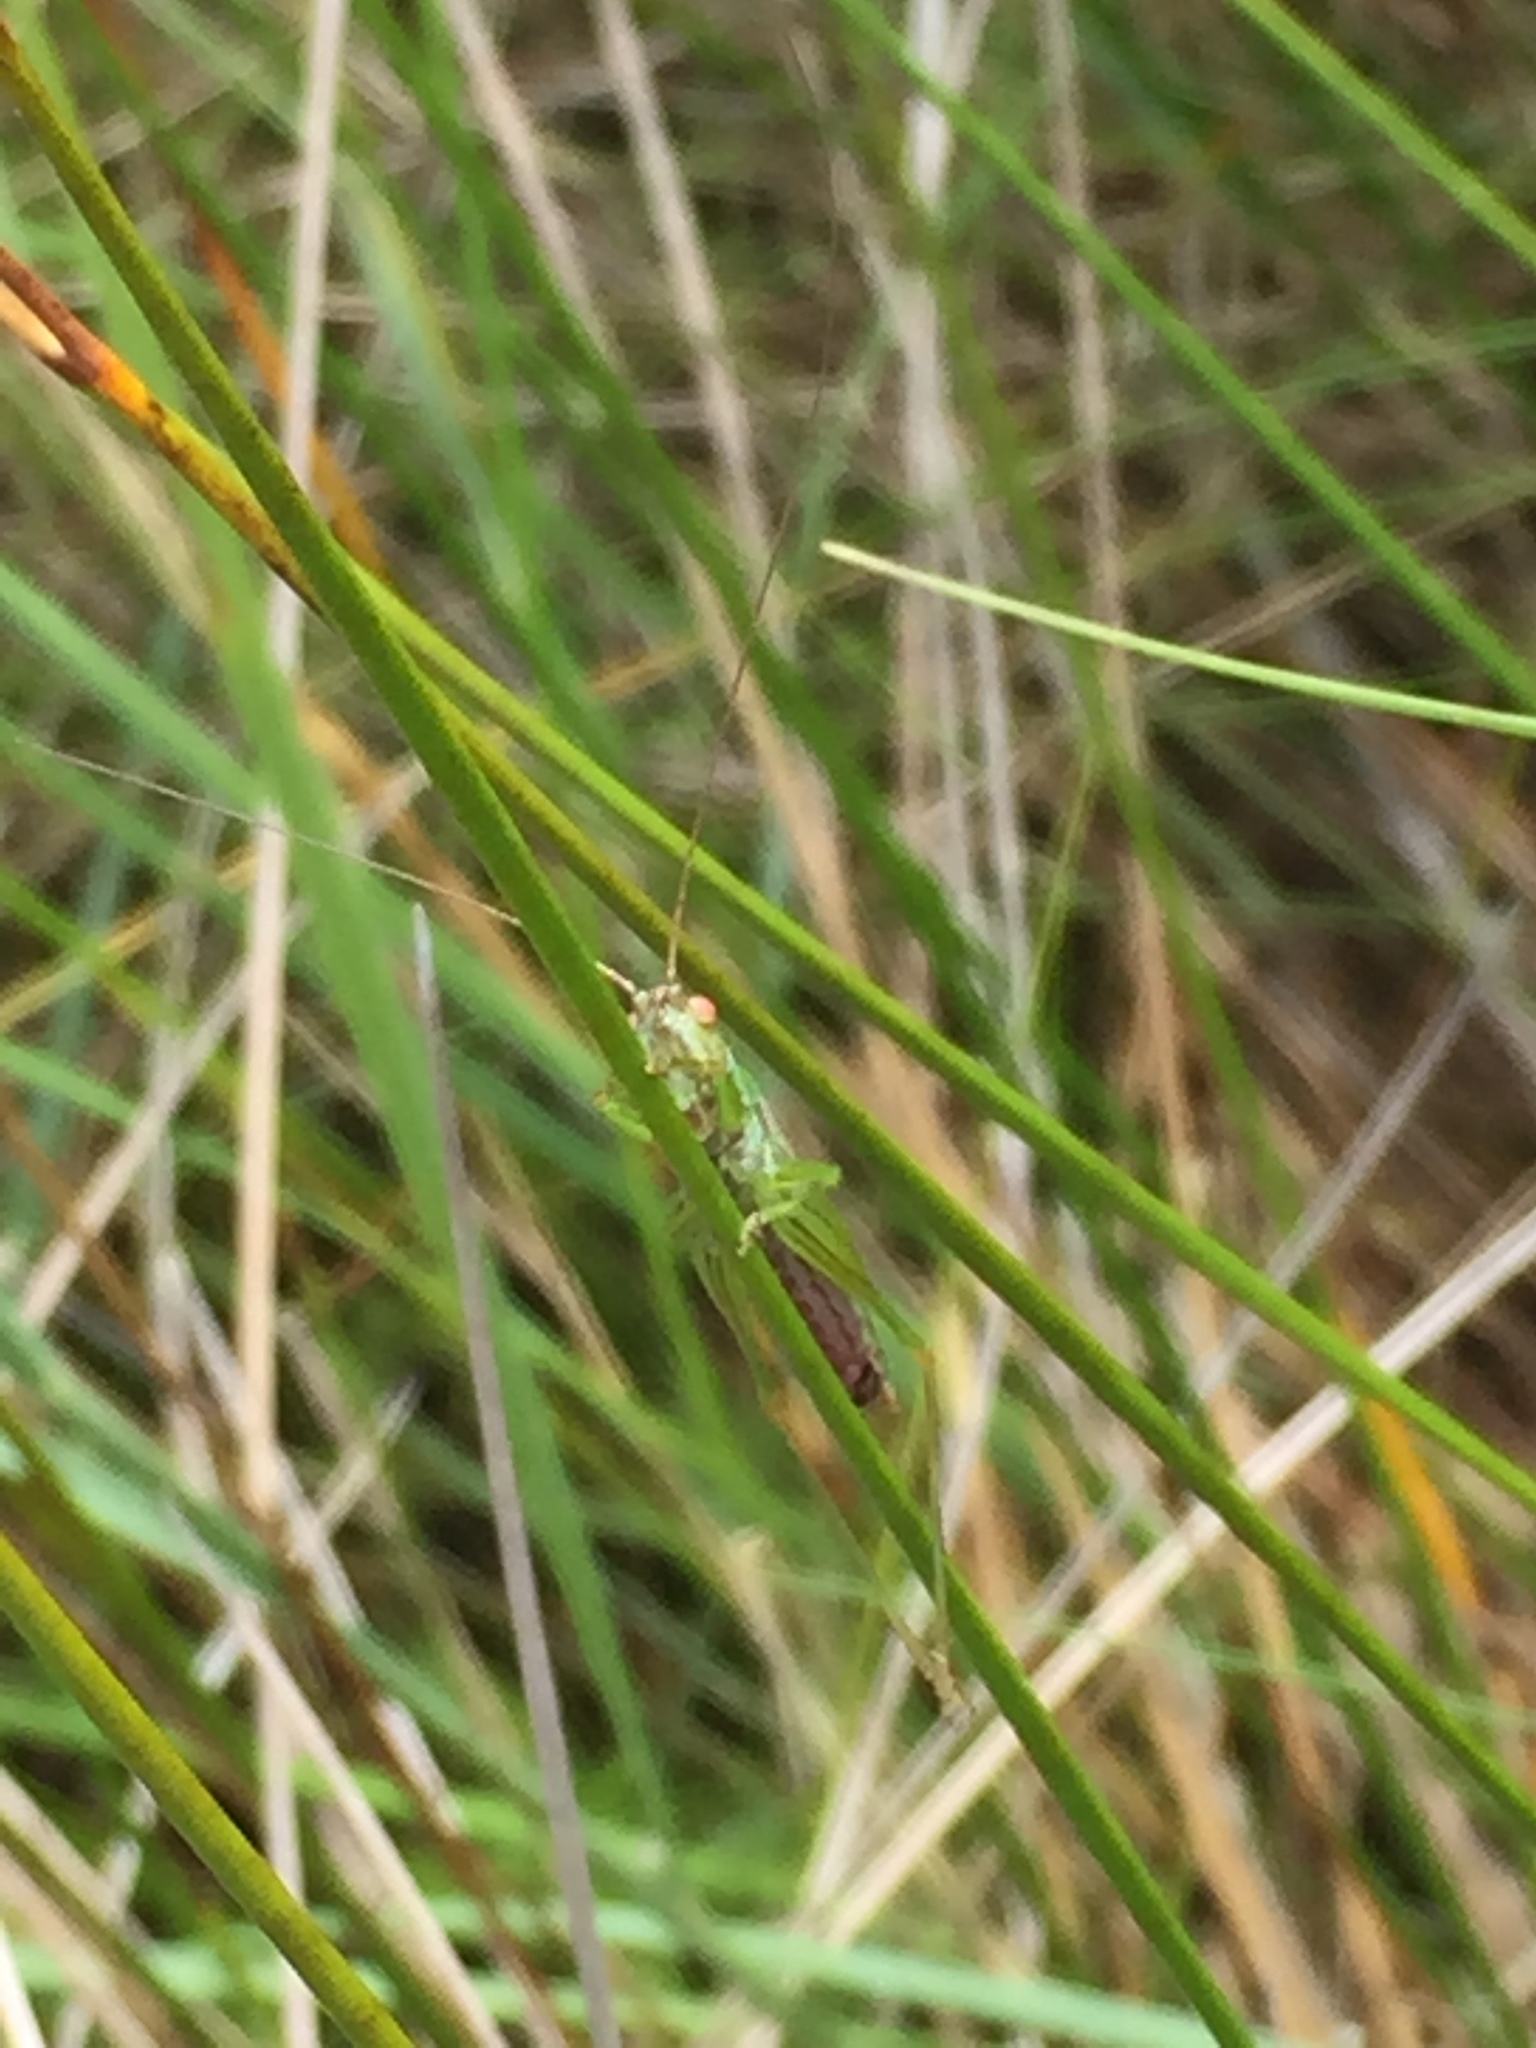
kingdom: Animalia
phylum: Arthropoda
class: Insecta
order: Orthoptera
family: Tettigoniidae
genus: Conocephalus
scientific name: Conocephalus dorsalis
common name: Short-winged conehead
